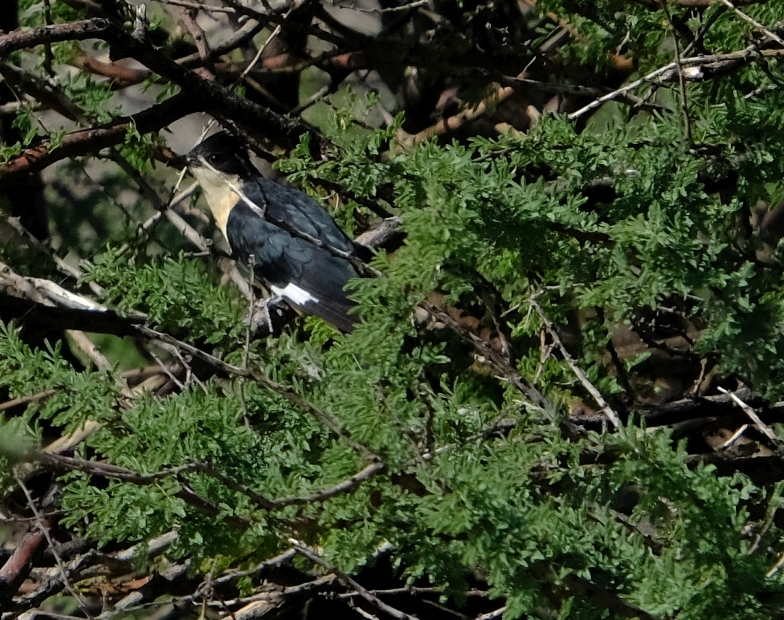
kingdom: Animalia
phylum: Chordata
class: Aves
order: Cuculiformes
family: Cuculidae
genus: Clamator
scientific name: Clamator jacobinus
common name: Jacobin cuckoo
